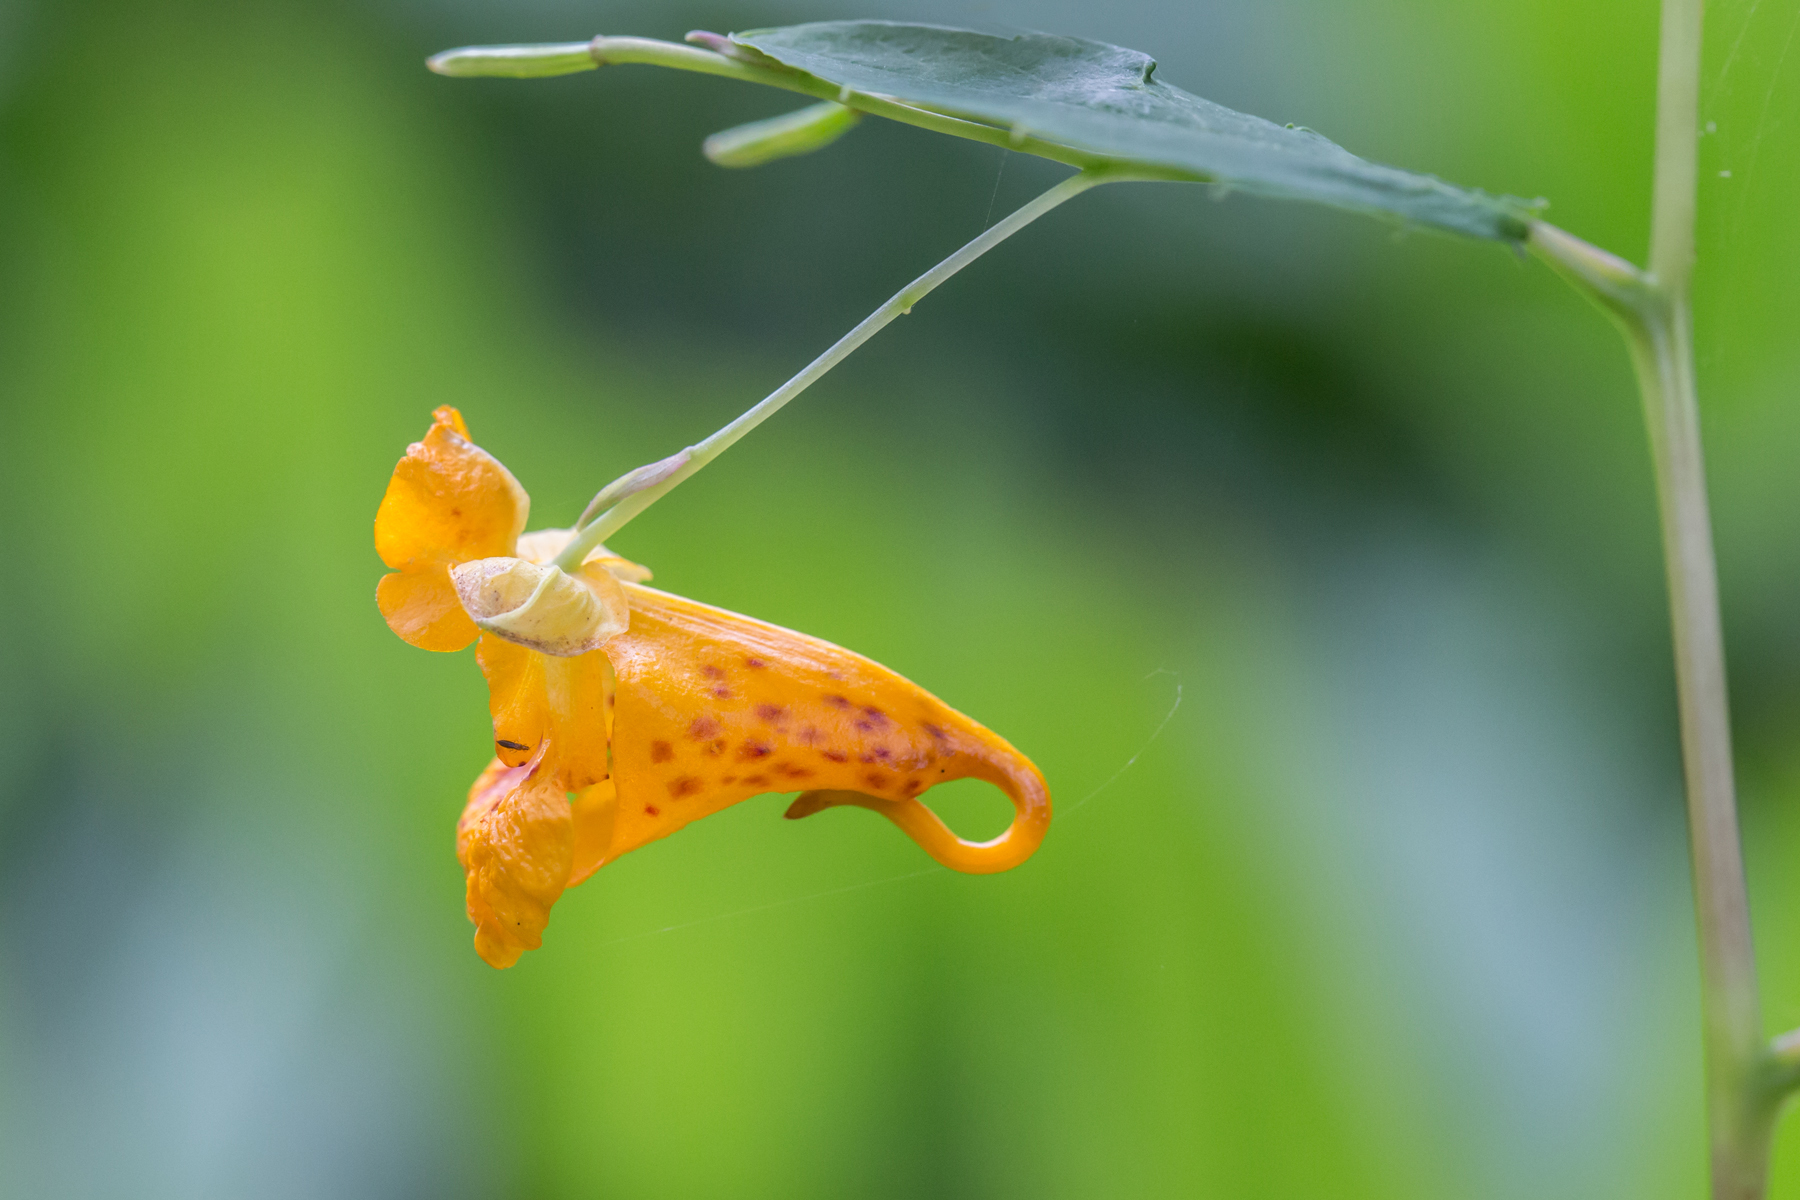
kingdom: Plantae
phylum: Tracheophyta
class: Magnoliopsida
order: Ericales
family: Balsaminaceae
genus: Impatiens
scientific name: Impatiens capensis
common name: Orange balsam
